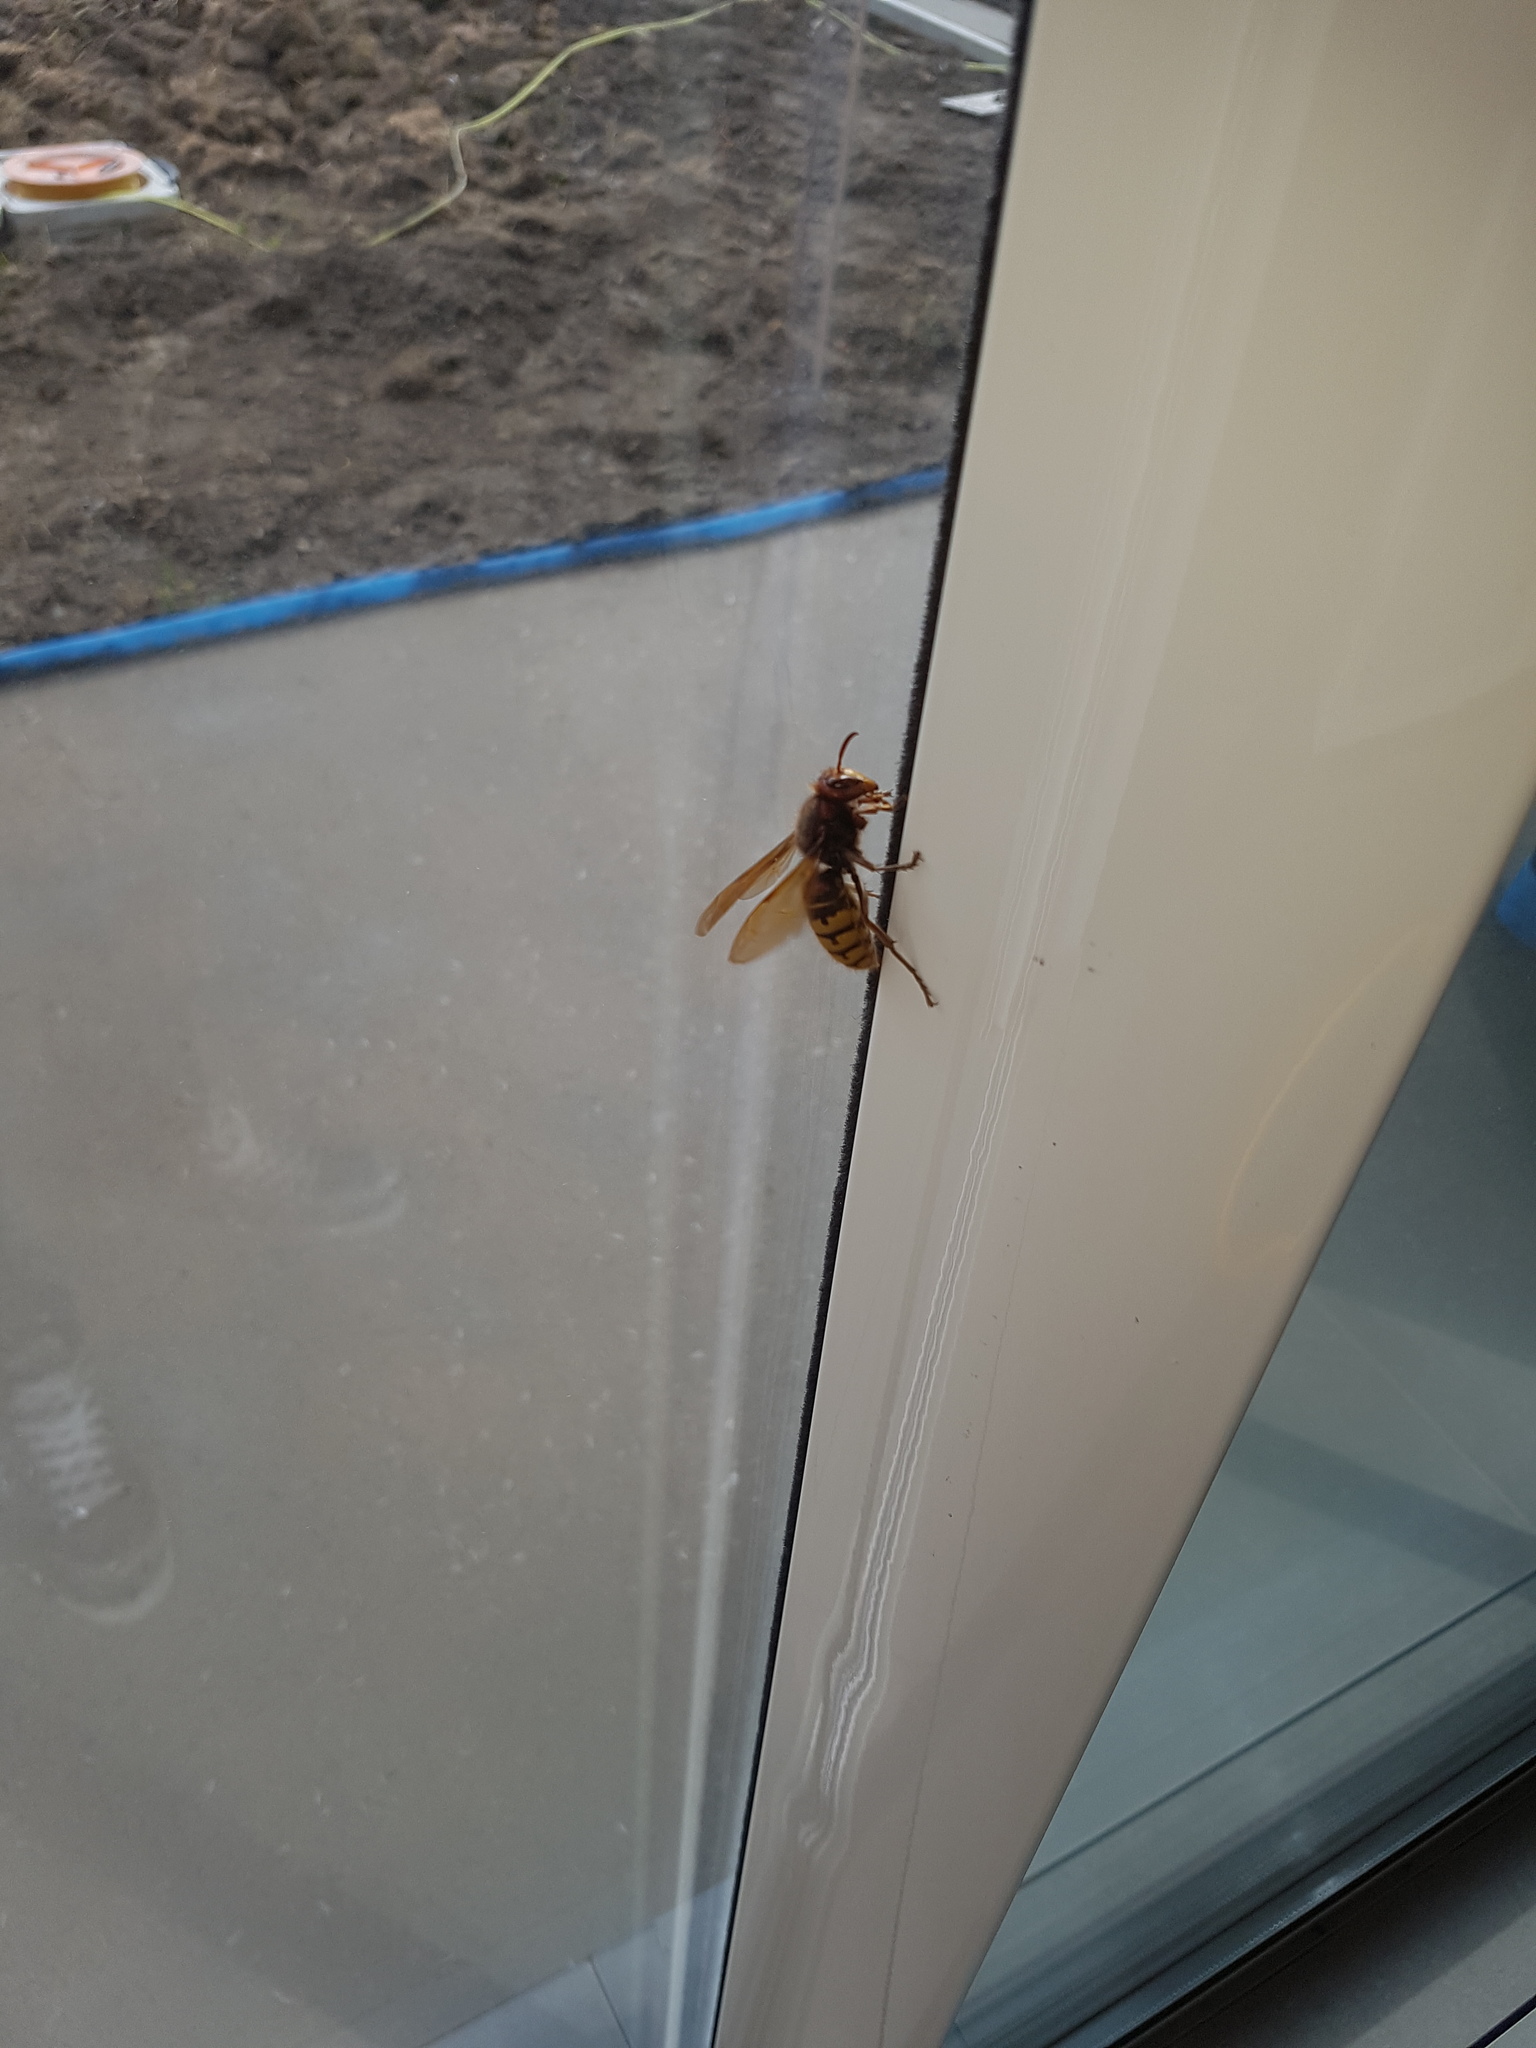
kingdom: Animalia
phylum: Arthropoda
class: Insecta
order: Hymenoptera
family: Vespidae
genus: Vespa
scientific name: Vespa crabro
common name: Hornet
